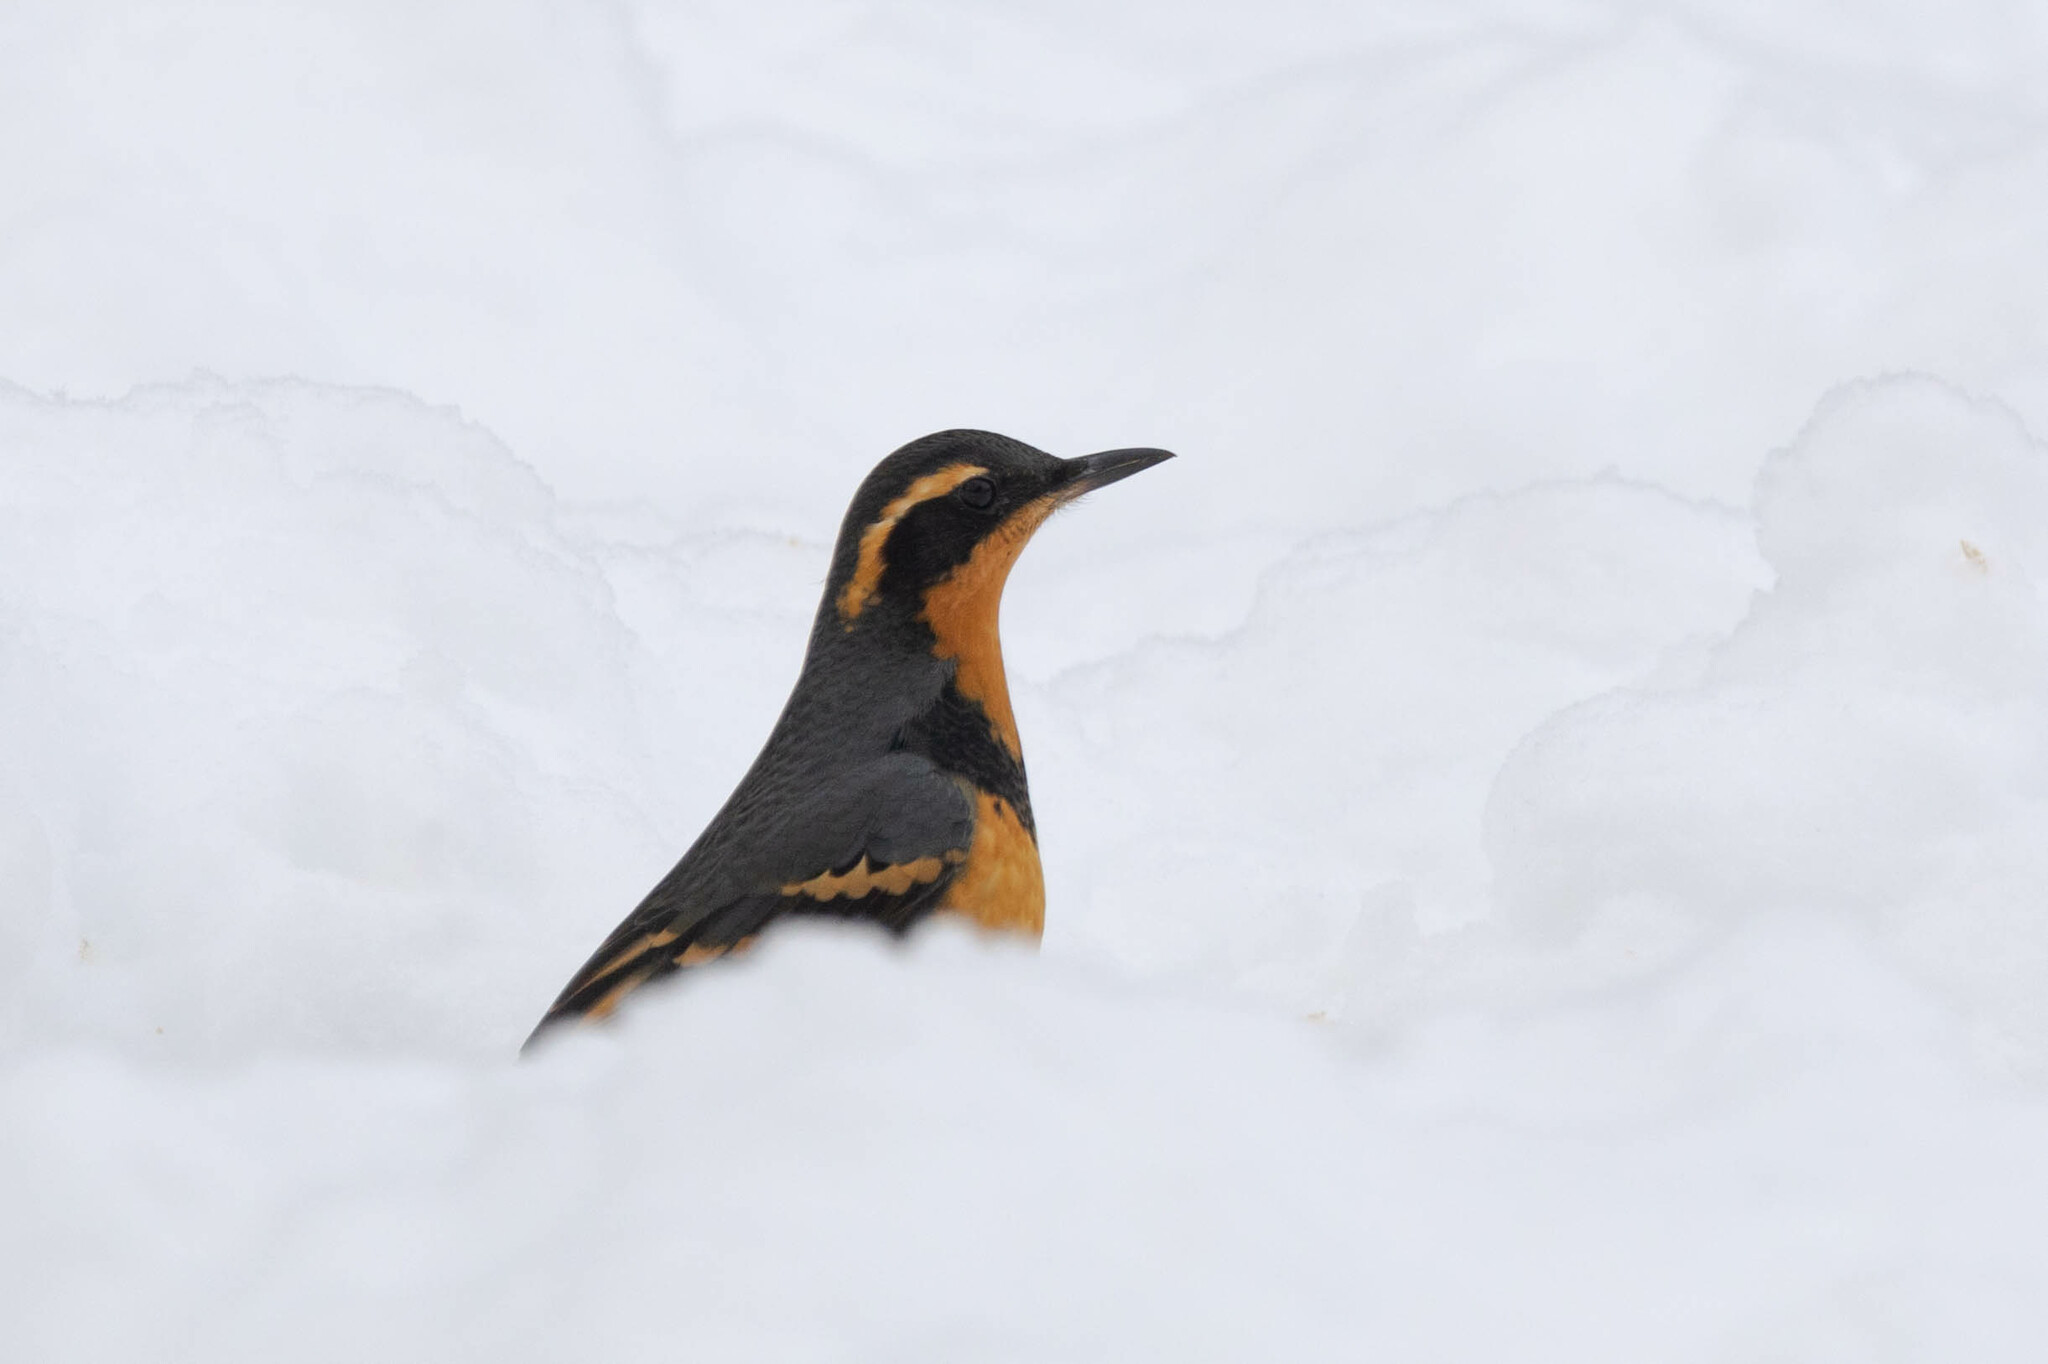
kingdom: Animalia
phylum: Chordata
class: Aves
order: Passeriformes
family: Turdidae
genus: Ixoreus
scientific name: Ixoreus naevius
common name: Varied thrush
